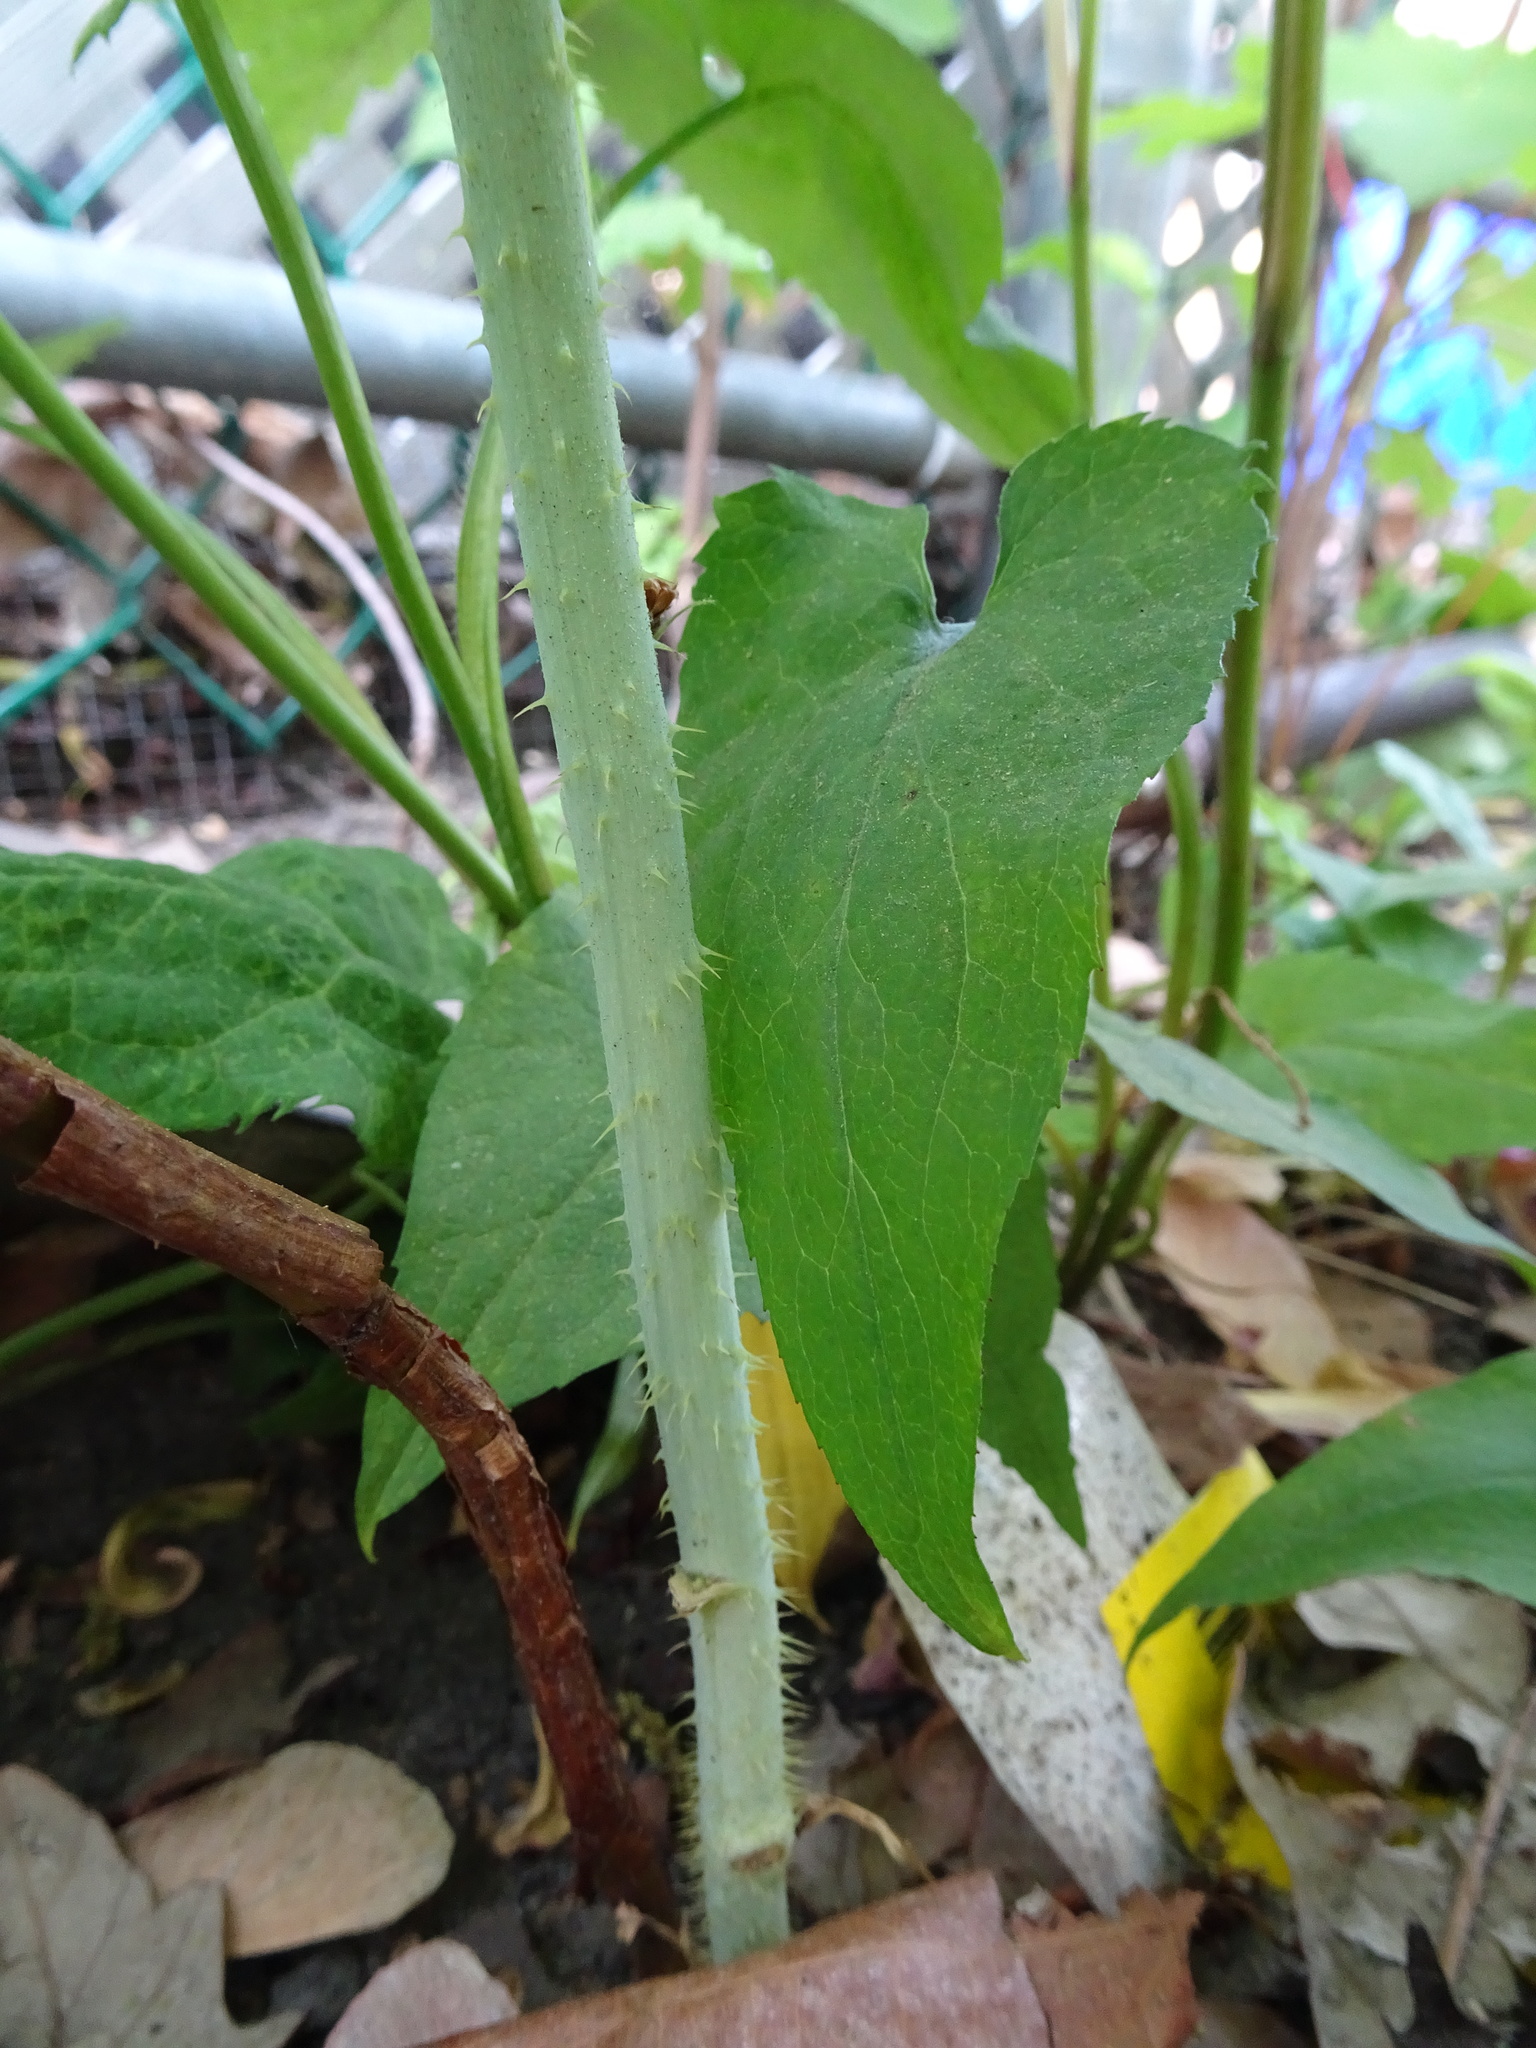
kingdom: Plantae
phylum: Tracheophyta
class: Magnoliopsida
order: Rosales
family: Rosaceae
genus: Rubus
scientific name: Rubus occidentalis
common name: Black raspberry
